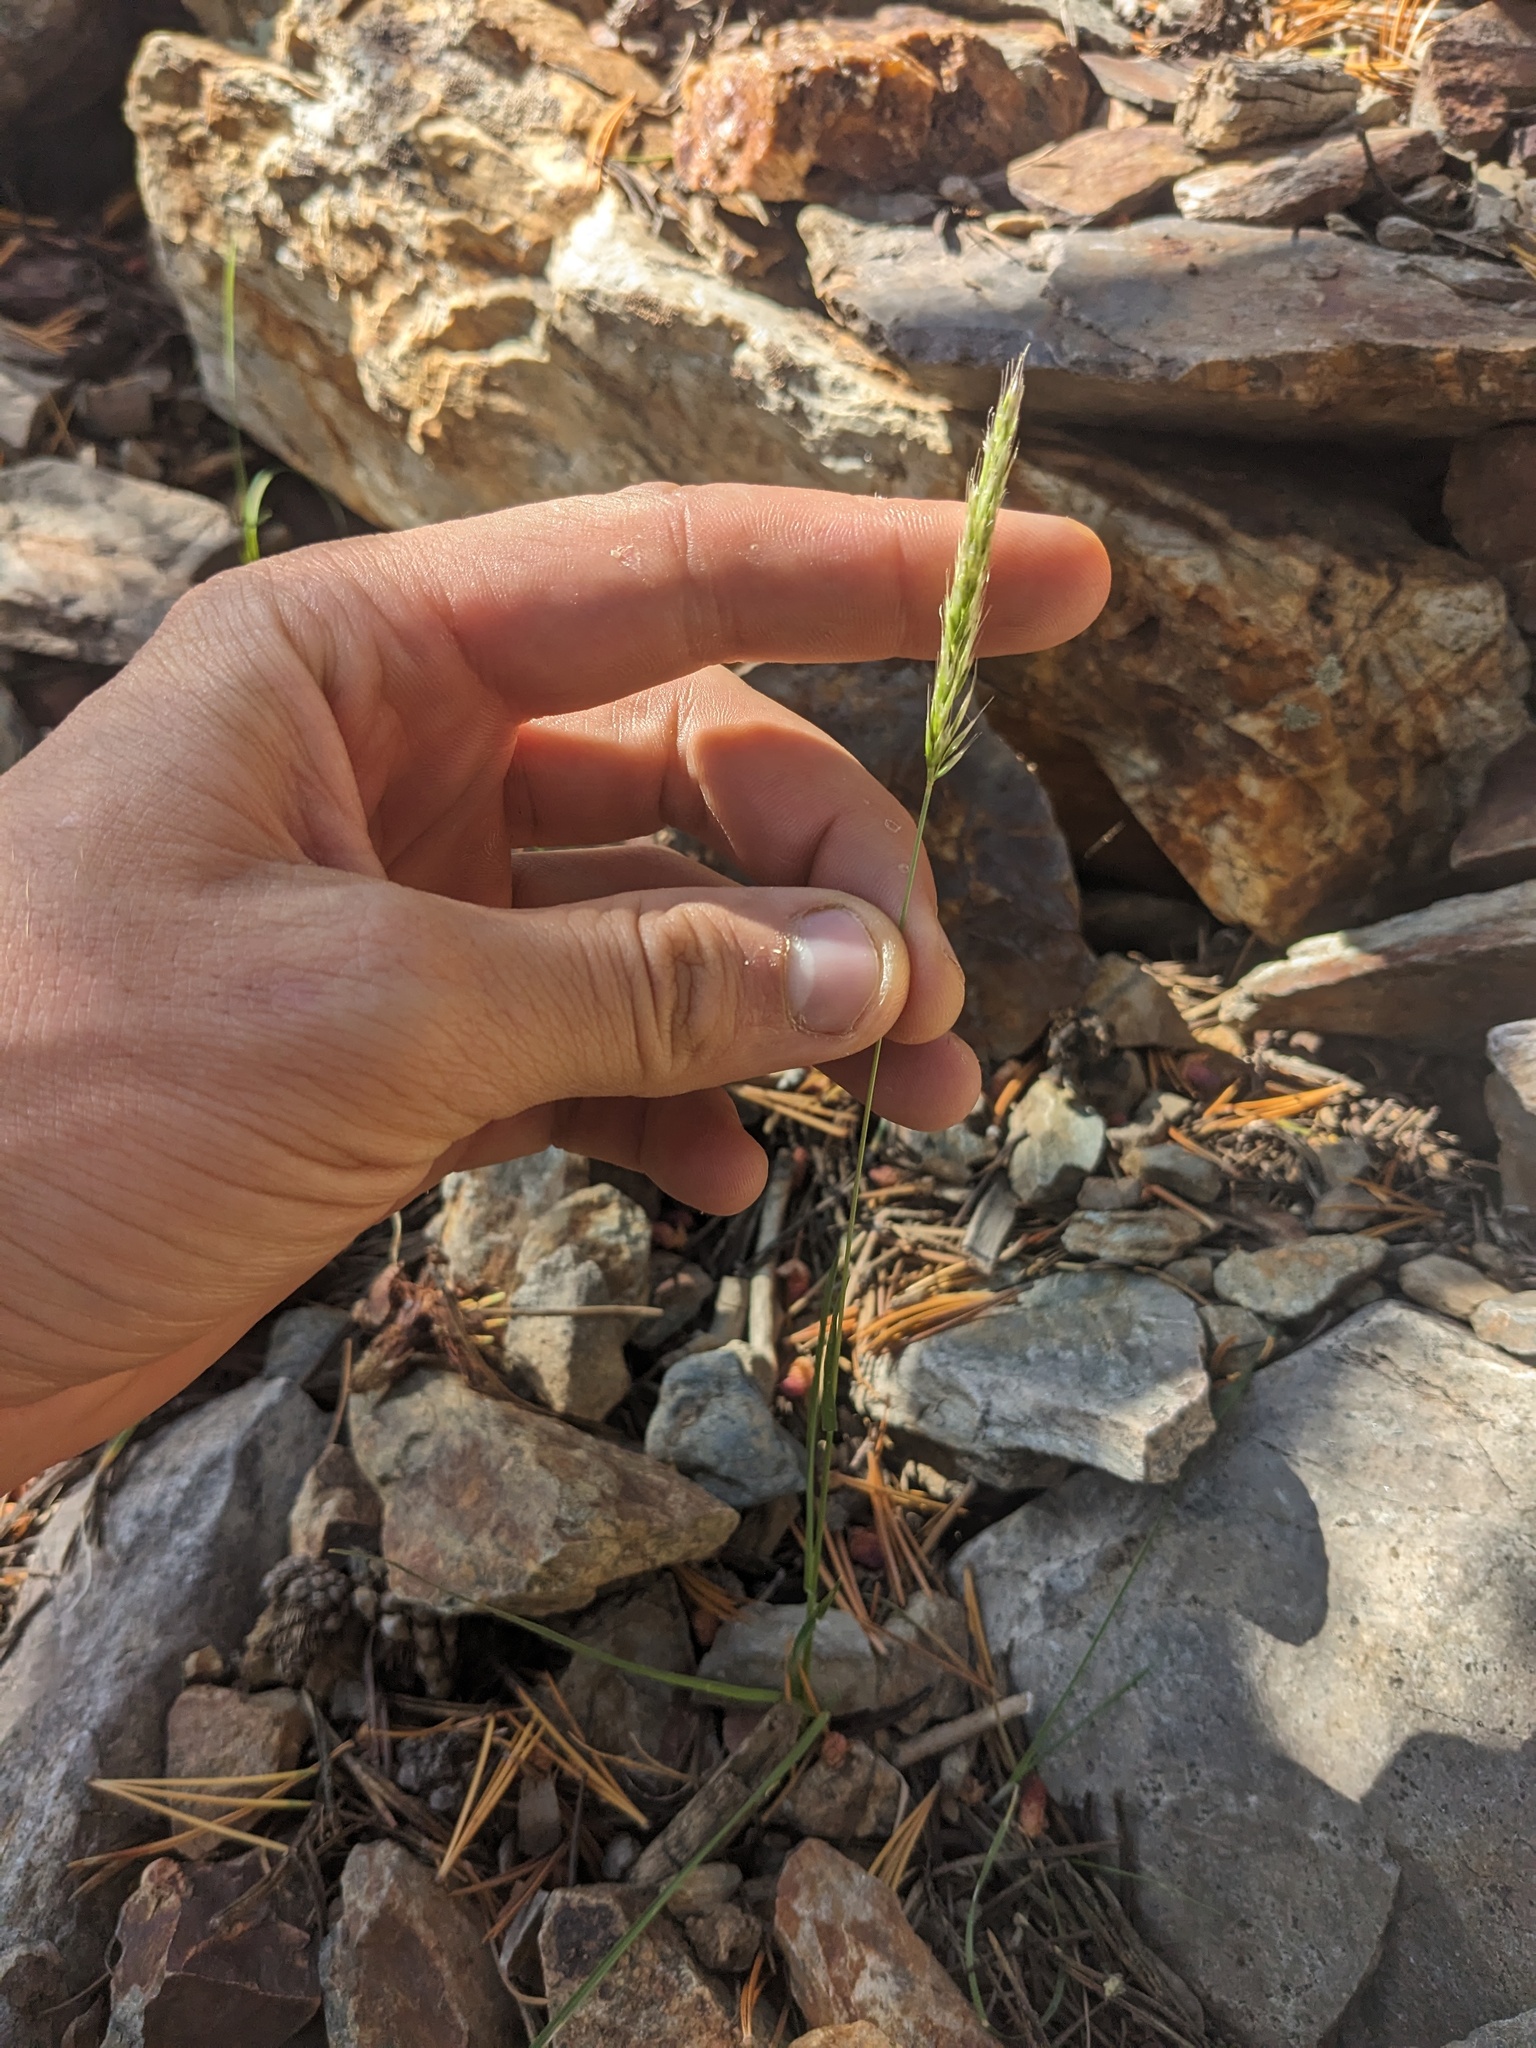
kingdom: Plantae
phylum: Tracheophyta
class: Liliopsida
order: Poales
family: Poaceae
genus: Koeleria
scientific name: Koeleria spicata
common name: Mountain trisetum
